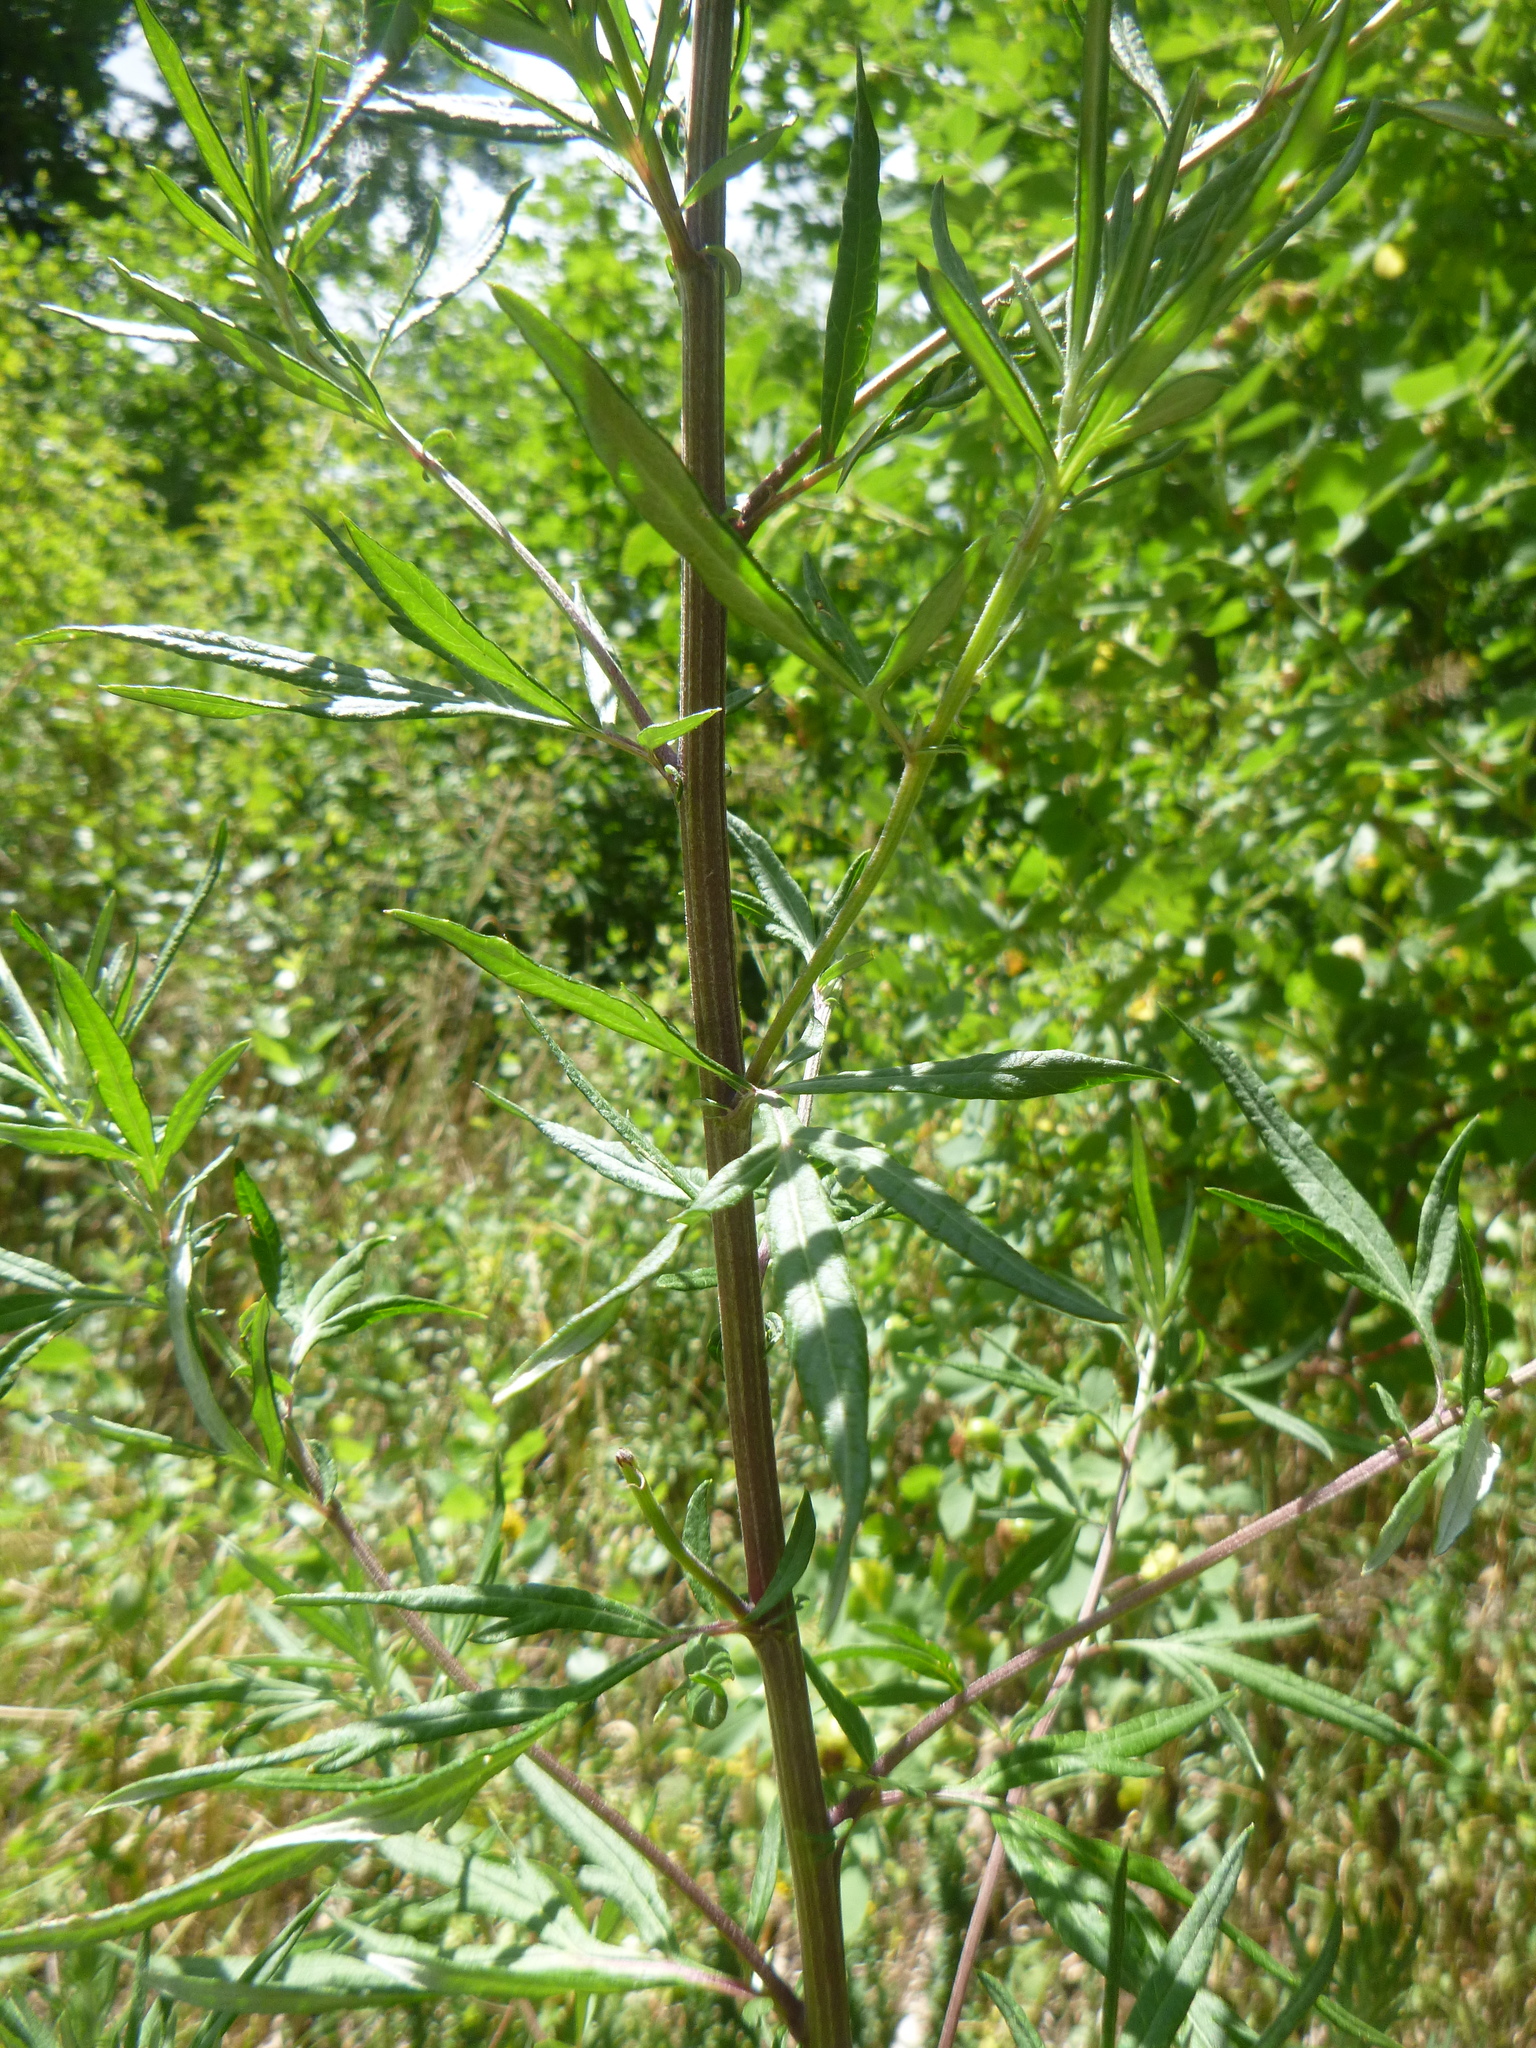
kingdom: Plantae
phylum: Tracheophyta
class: Magnoliopsida
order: Asterales
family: Asteraceae
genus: Artemisia
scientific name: Artemisia vulgaris
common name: Mugwort
